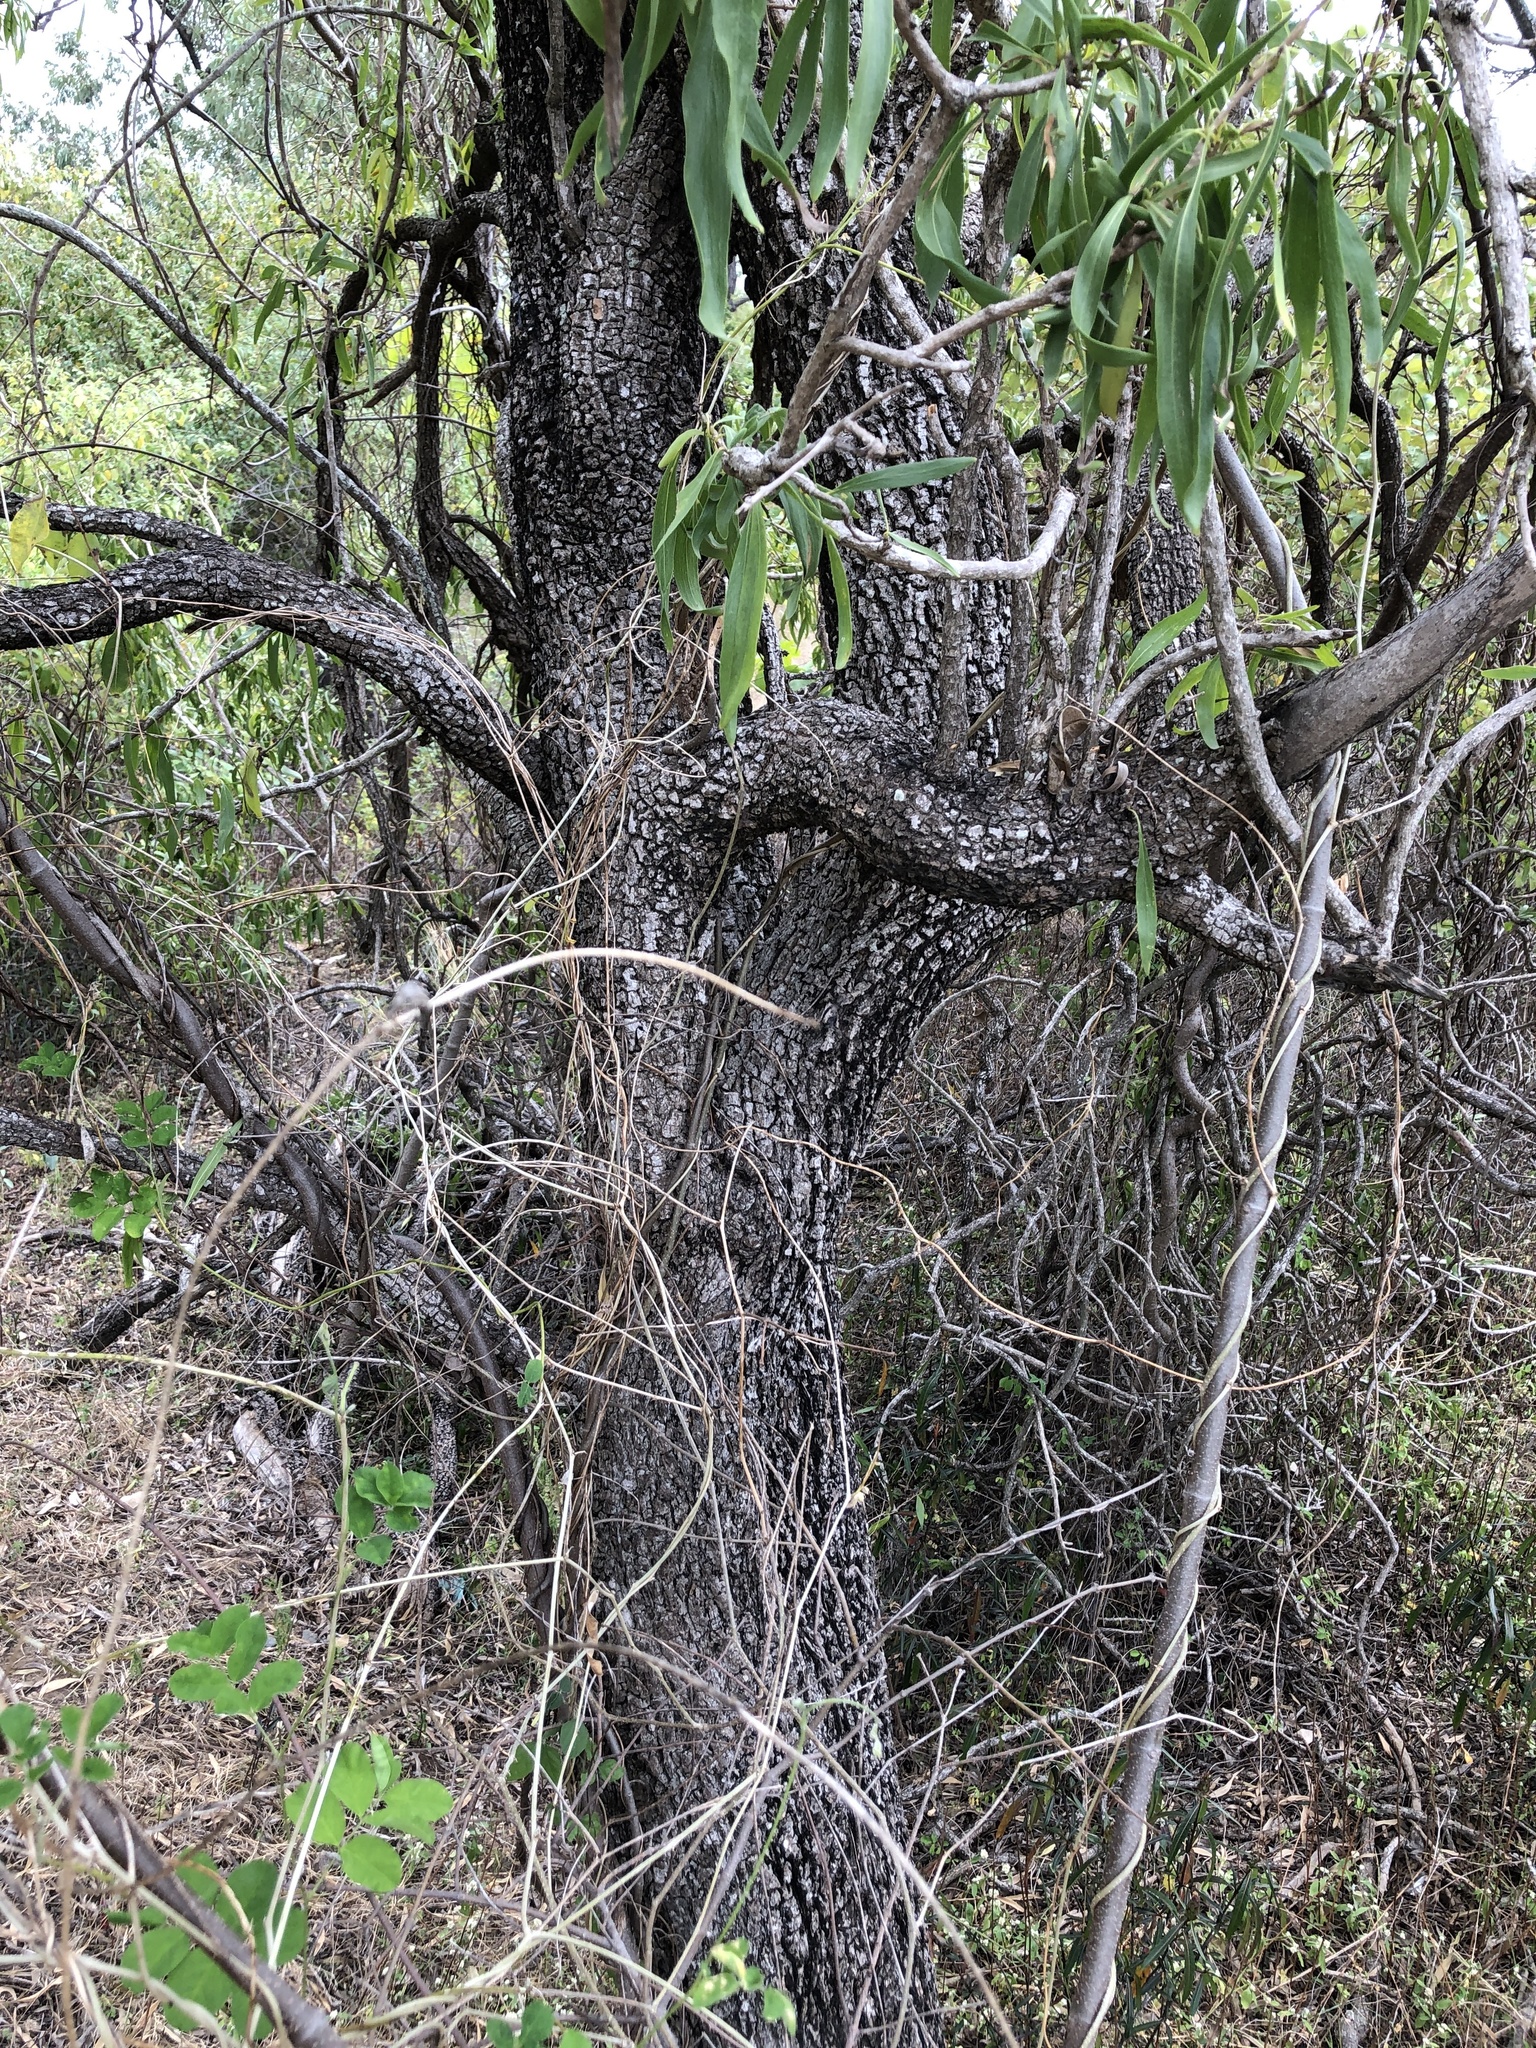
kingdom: Plantae
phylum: Tracheophyta
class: Magnoliopsida
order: Lamiales
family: Bignoniaceae
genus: Dolichandrone
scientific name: Dolichandrone alternifolia
